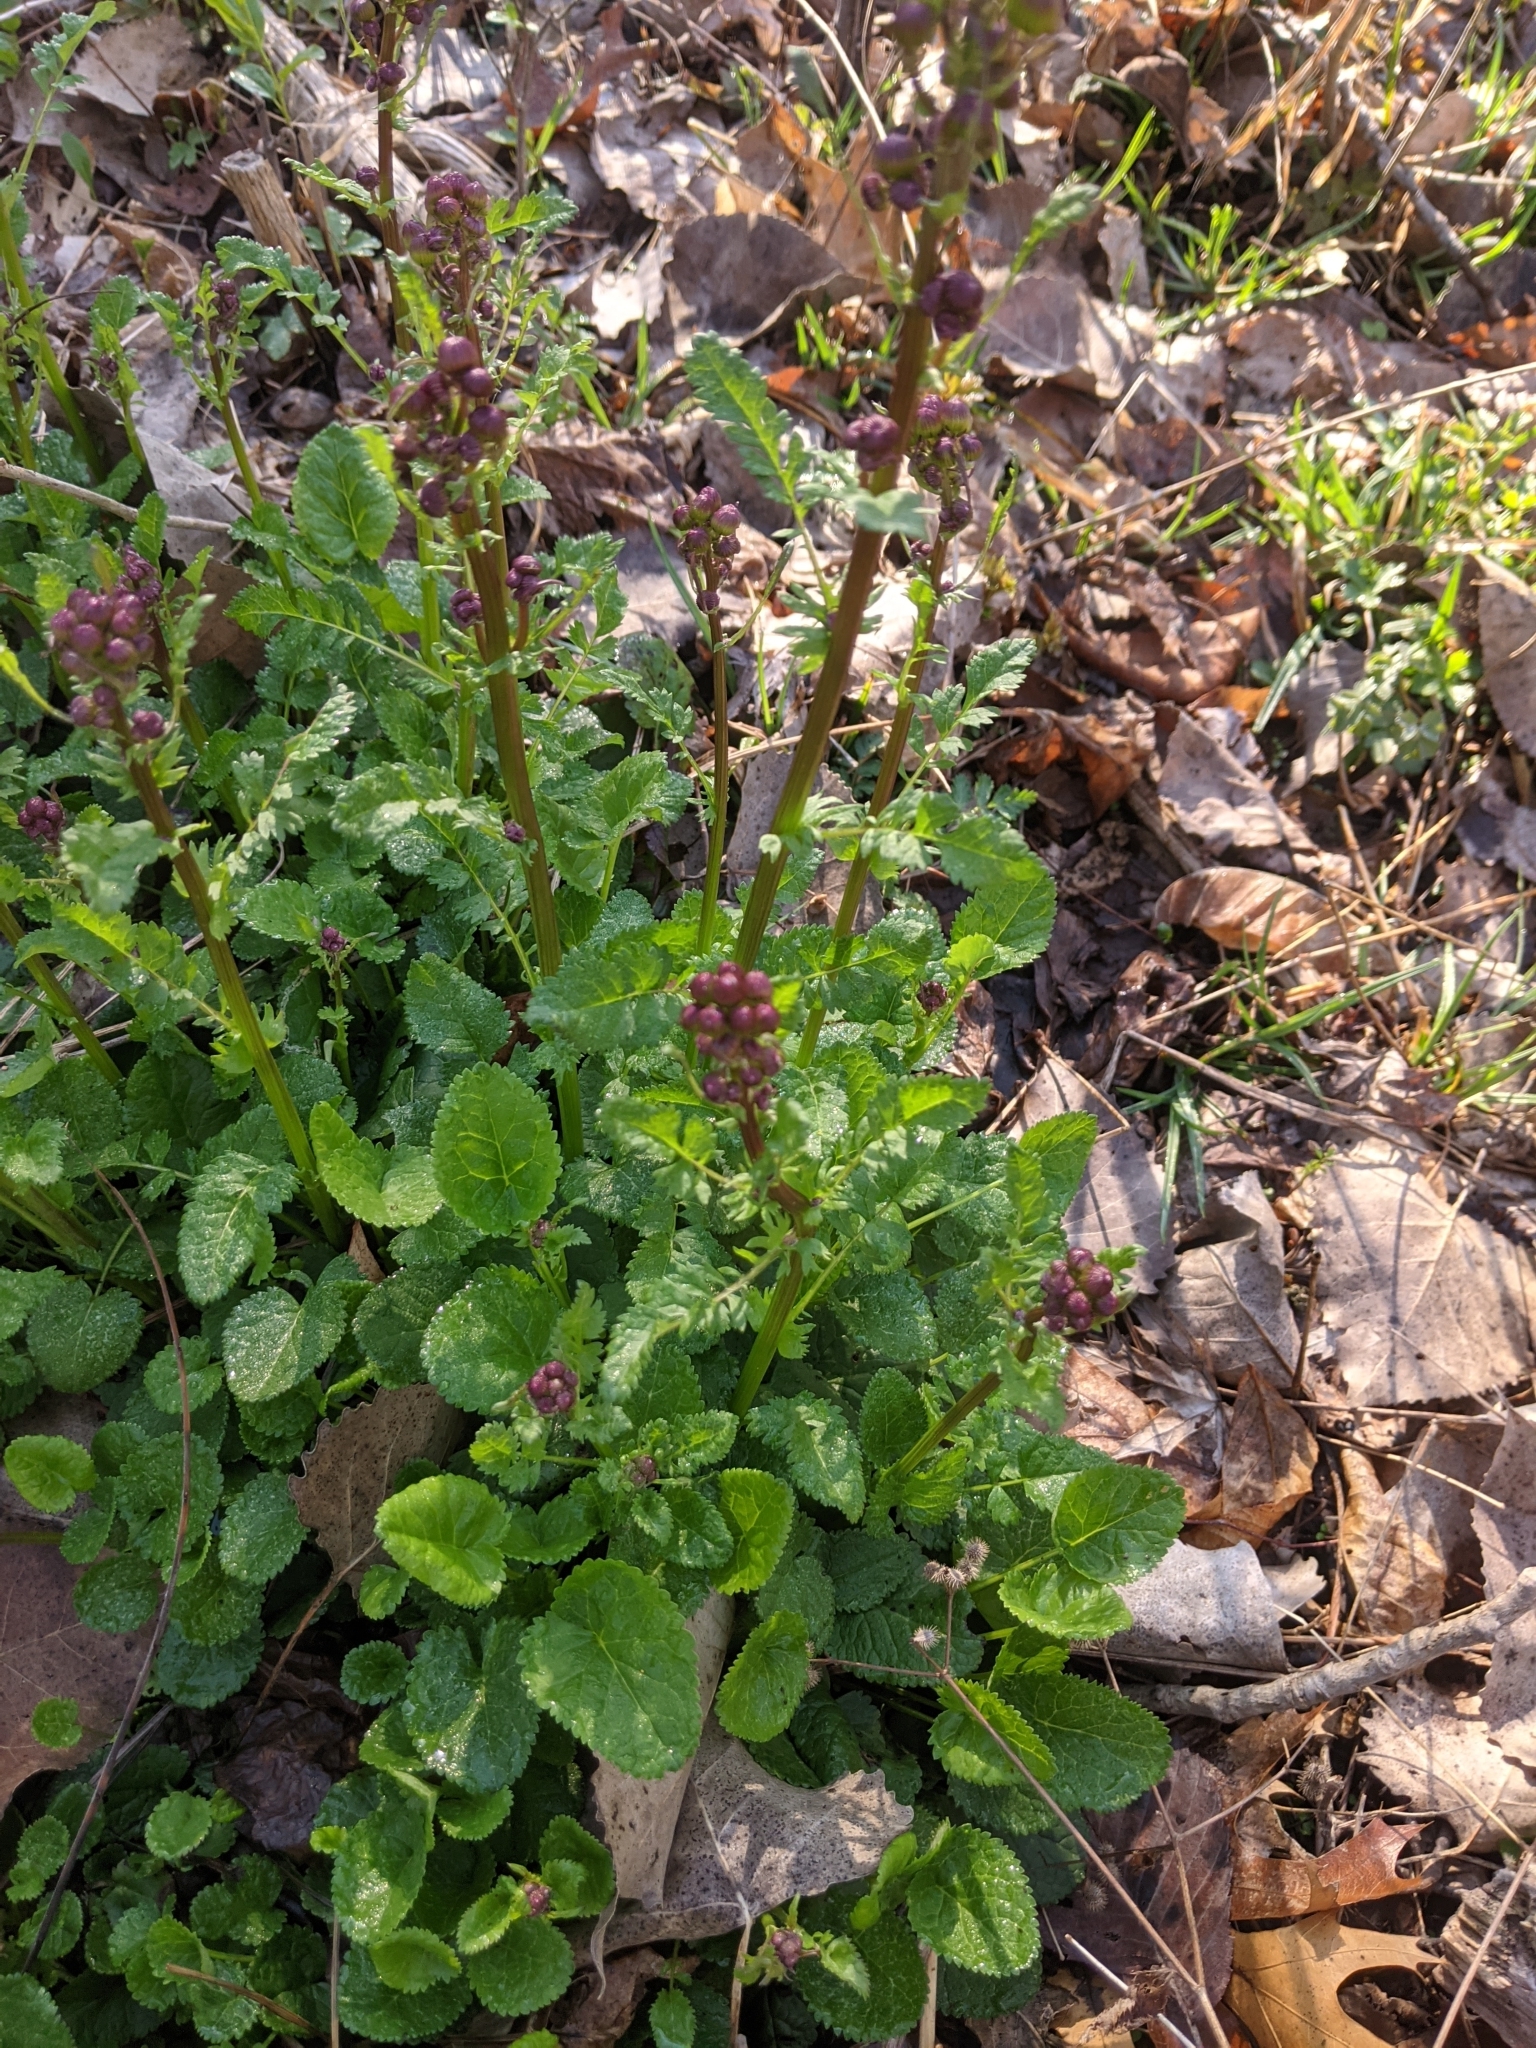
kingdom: Plantae
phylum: Tracheophyta
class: Magnoliopsida
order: Asterales
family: Asteraceae
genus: Packera
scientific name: Packera aurea
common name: Golden groundsel
